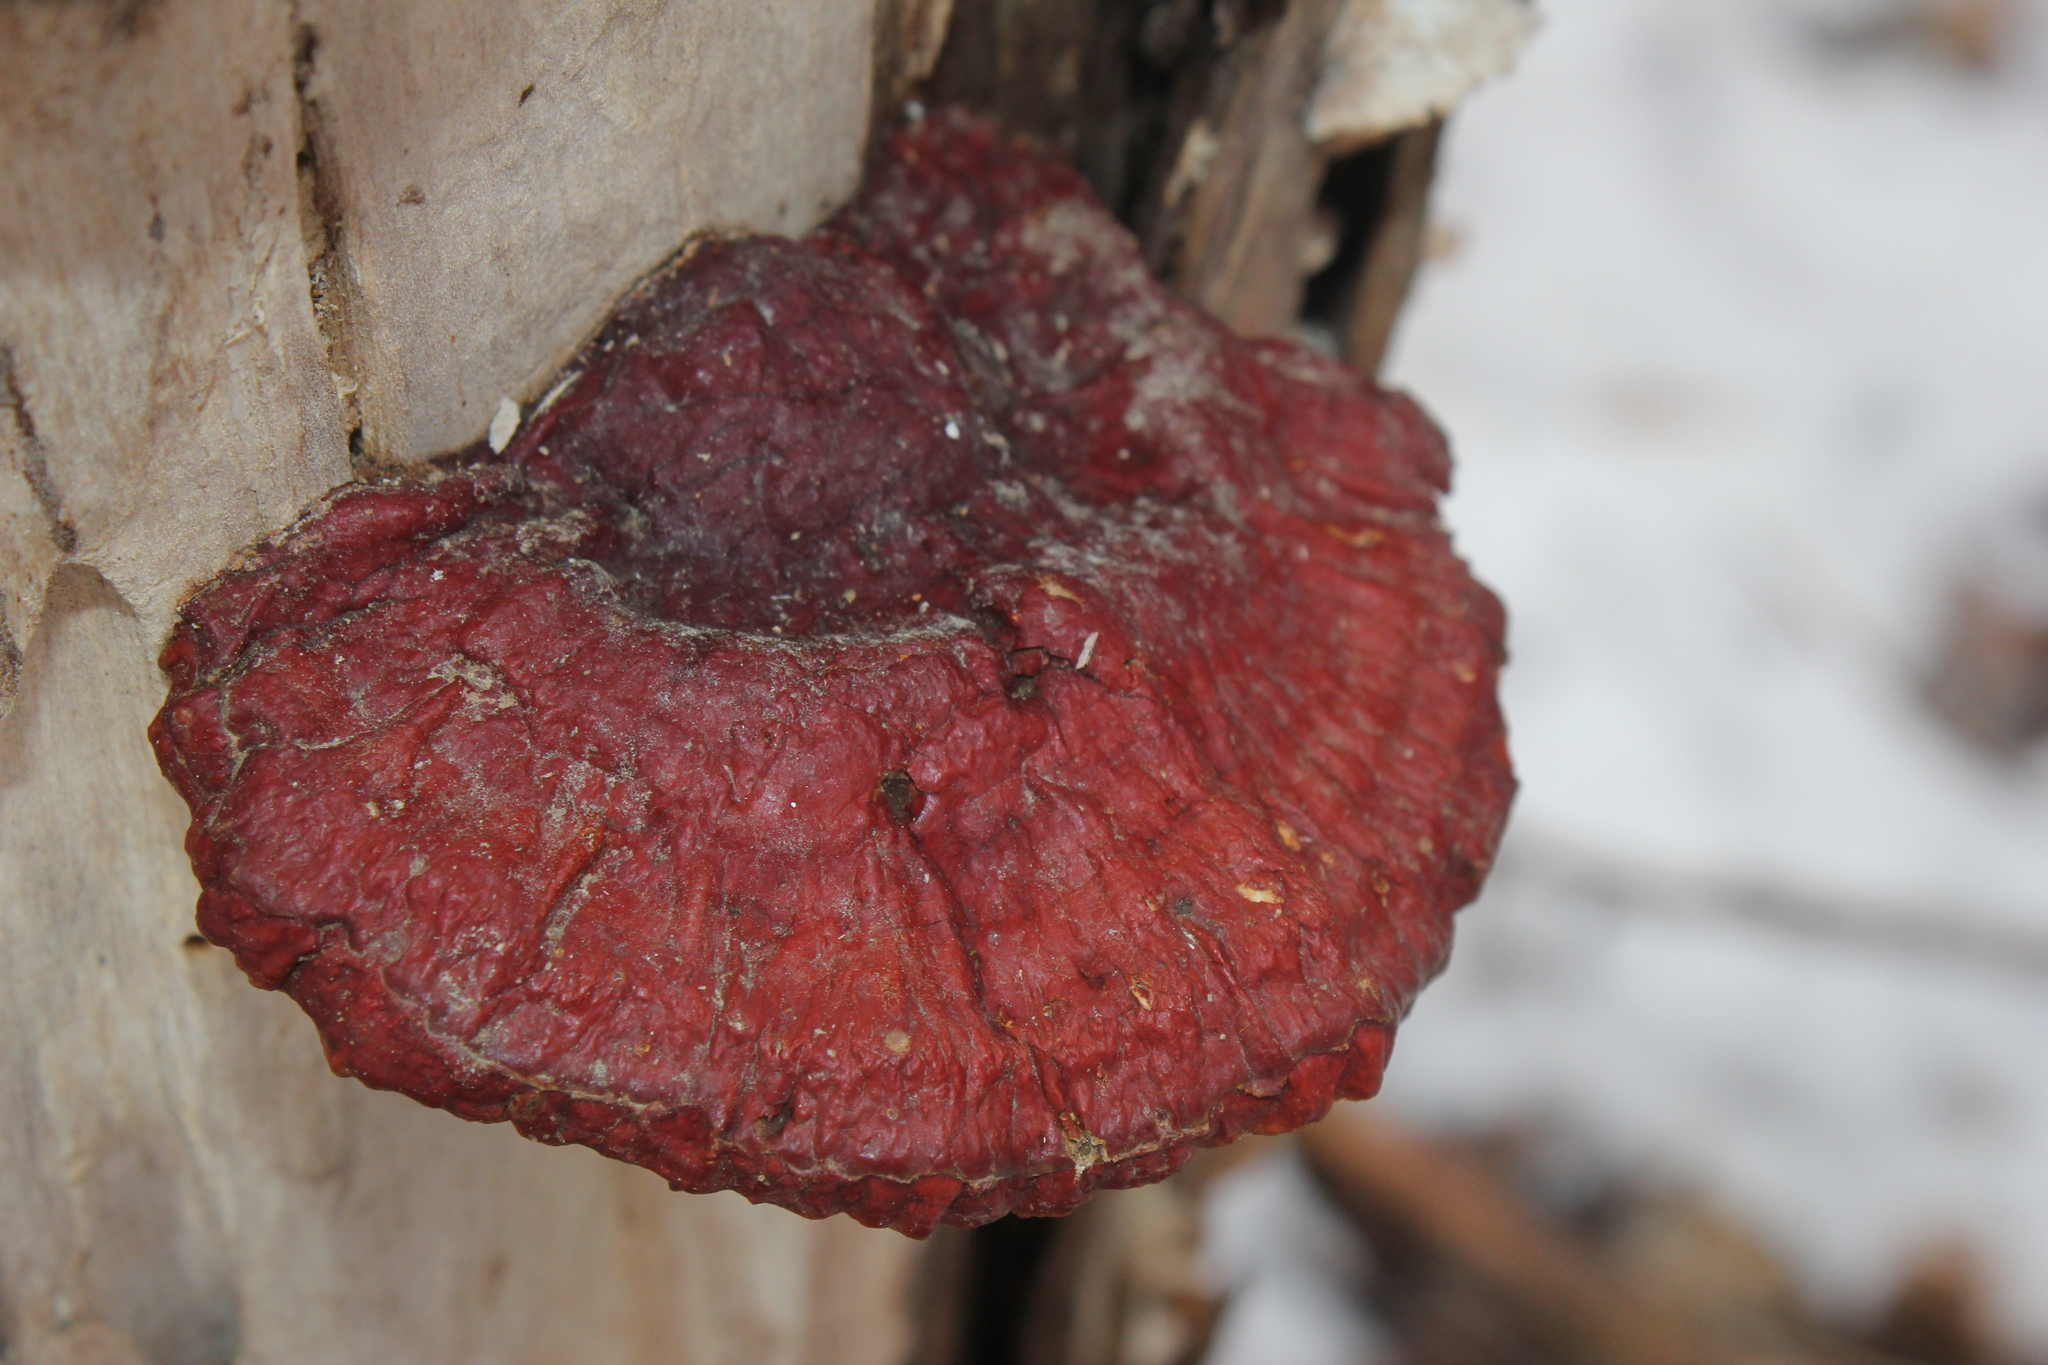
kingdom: Fungi
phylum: Basidiomycota
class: Agaricomycetes
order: Polyporales
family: Polyporaceae
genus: Ganoderma
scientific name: Ganoderma resinaceum
